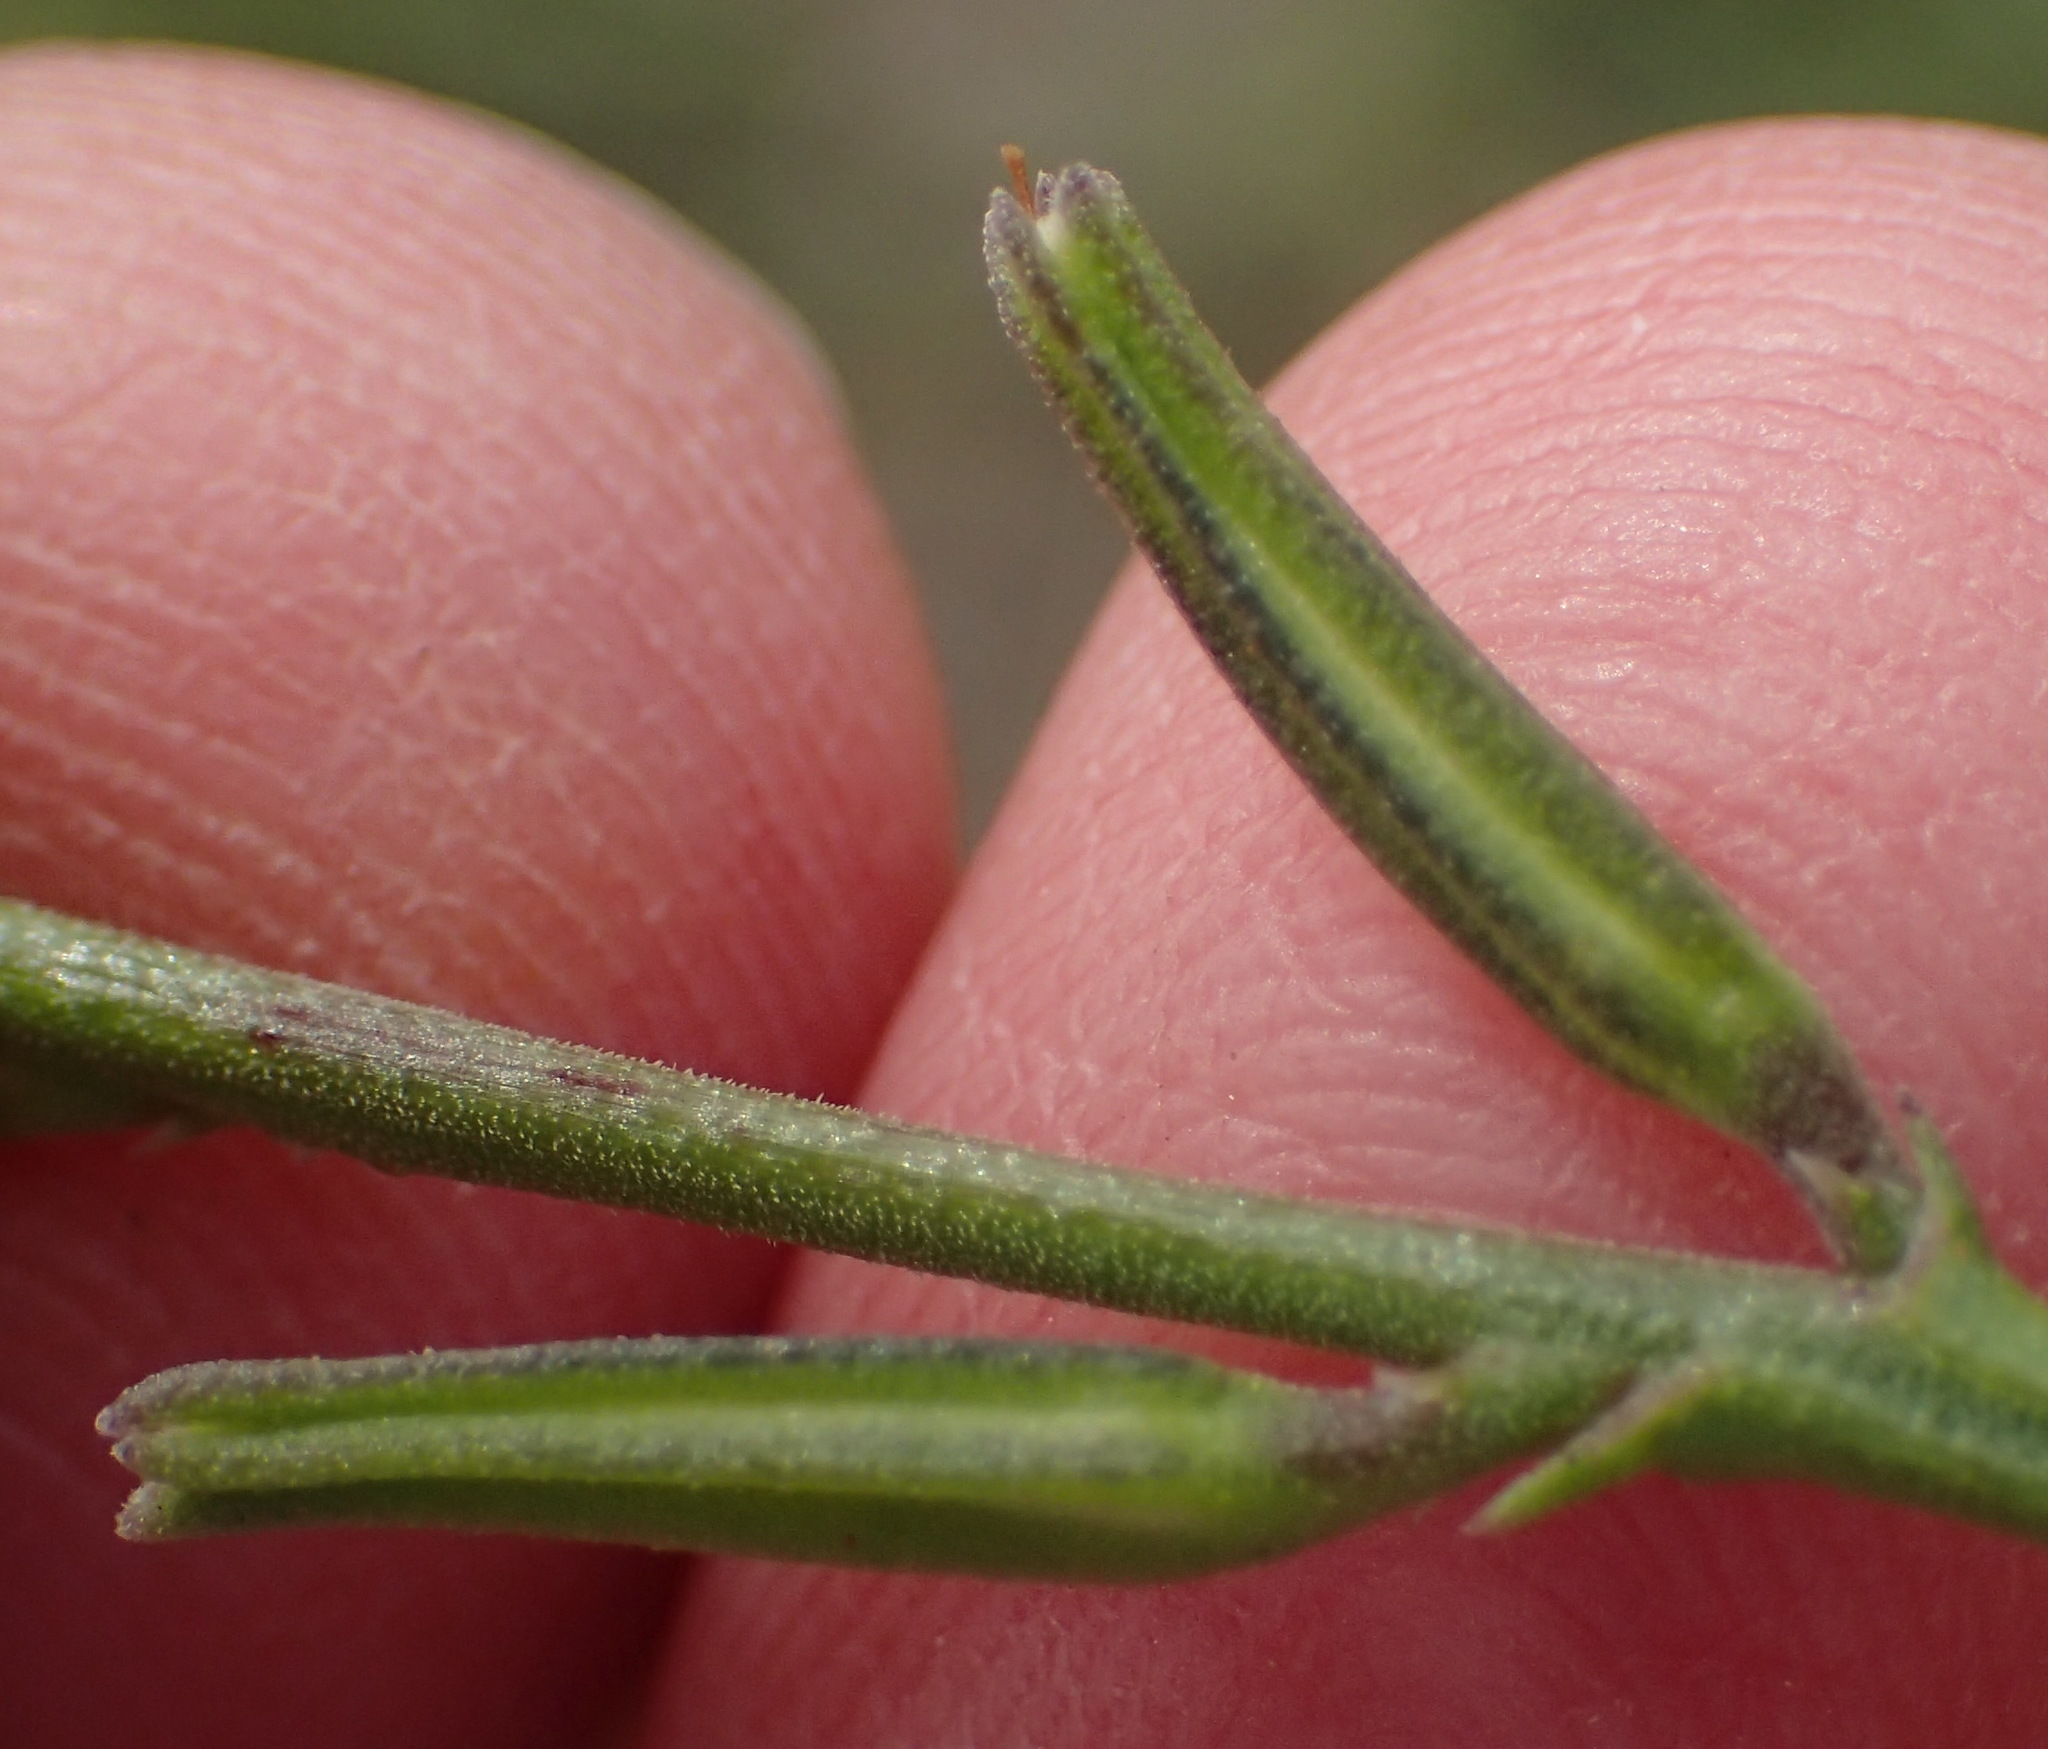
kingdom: Plantae
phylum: Tracheophyta
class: Magnoliopsida
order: Lamiales
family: Verbenaceae
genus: Chascanum
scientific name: Chascanum cuneifolium
